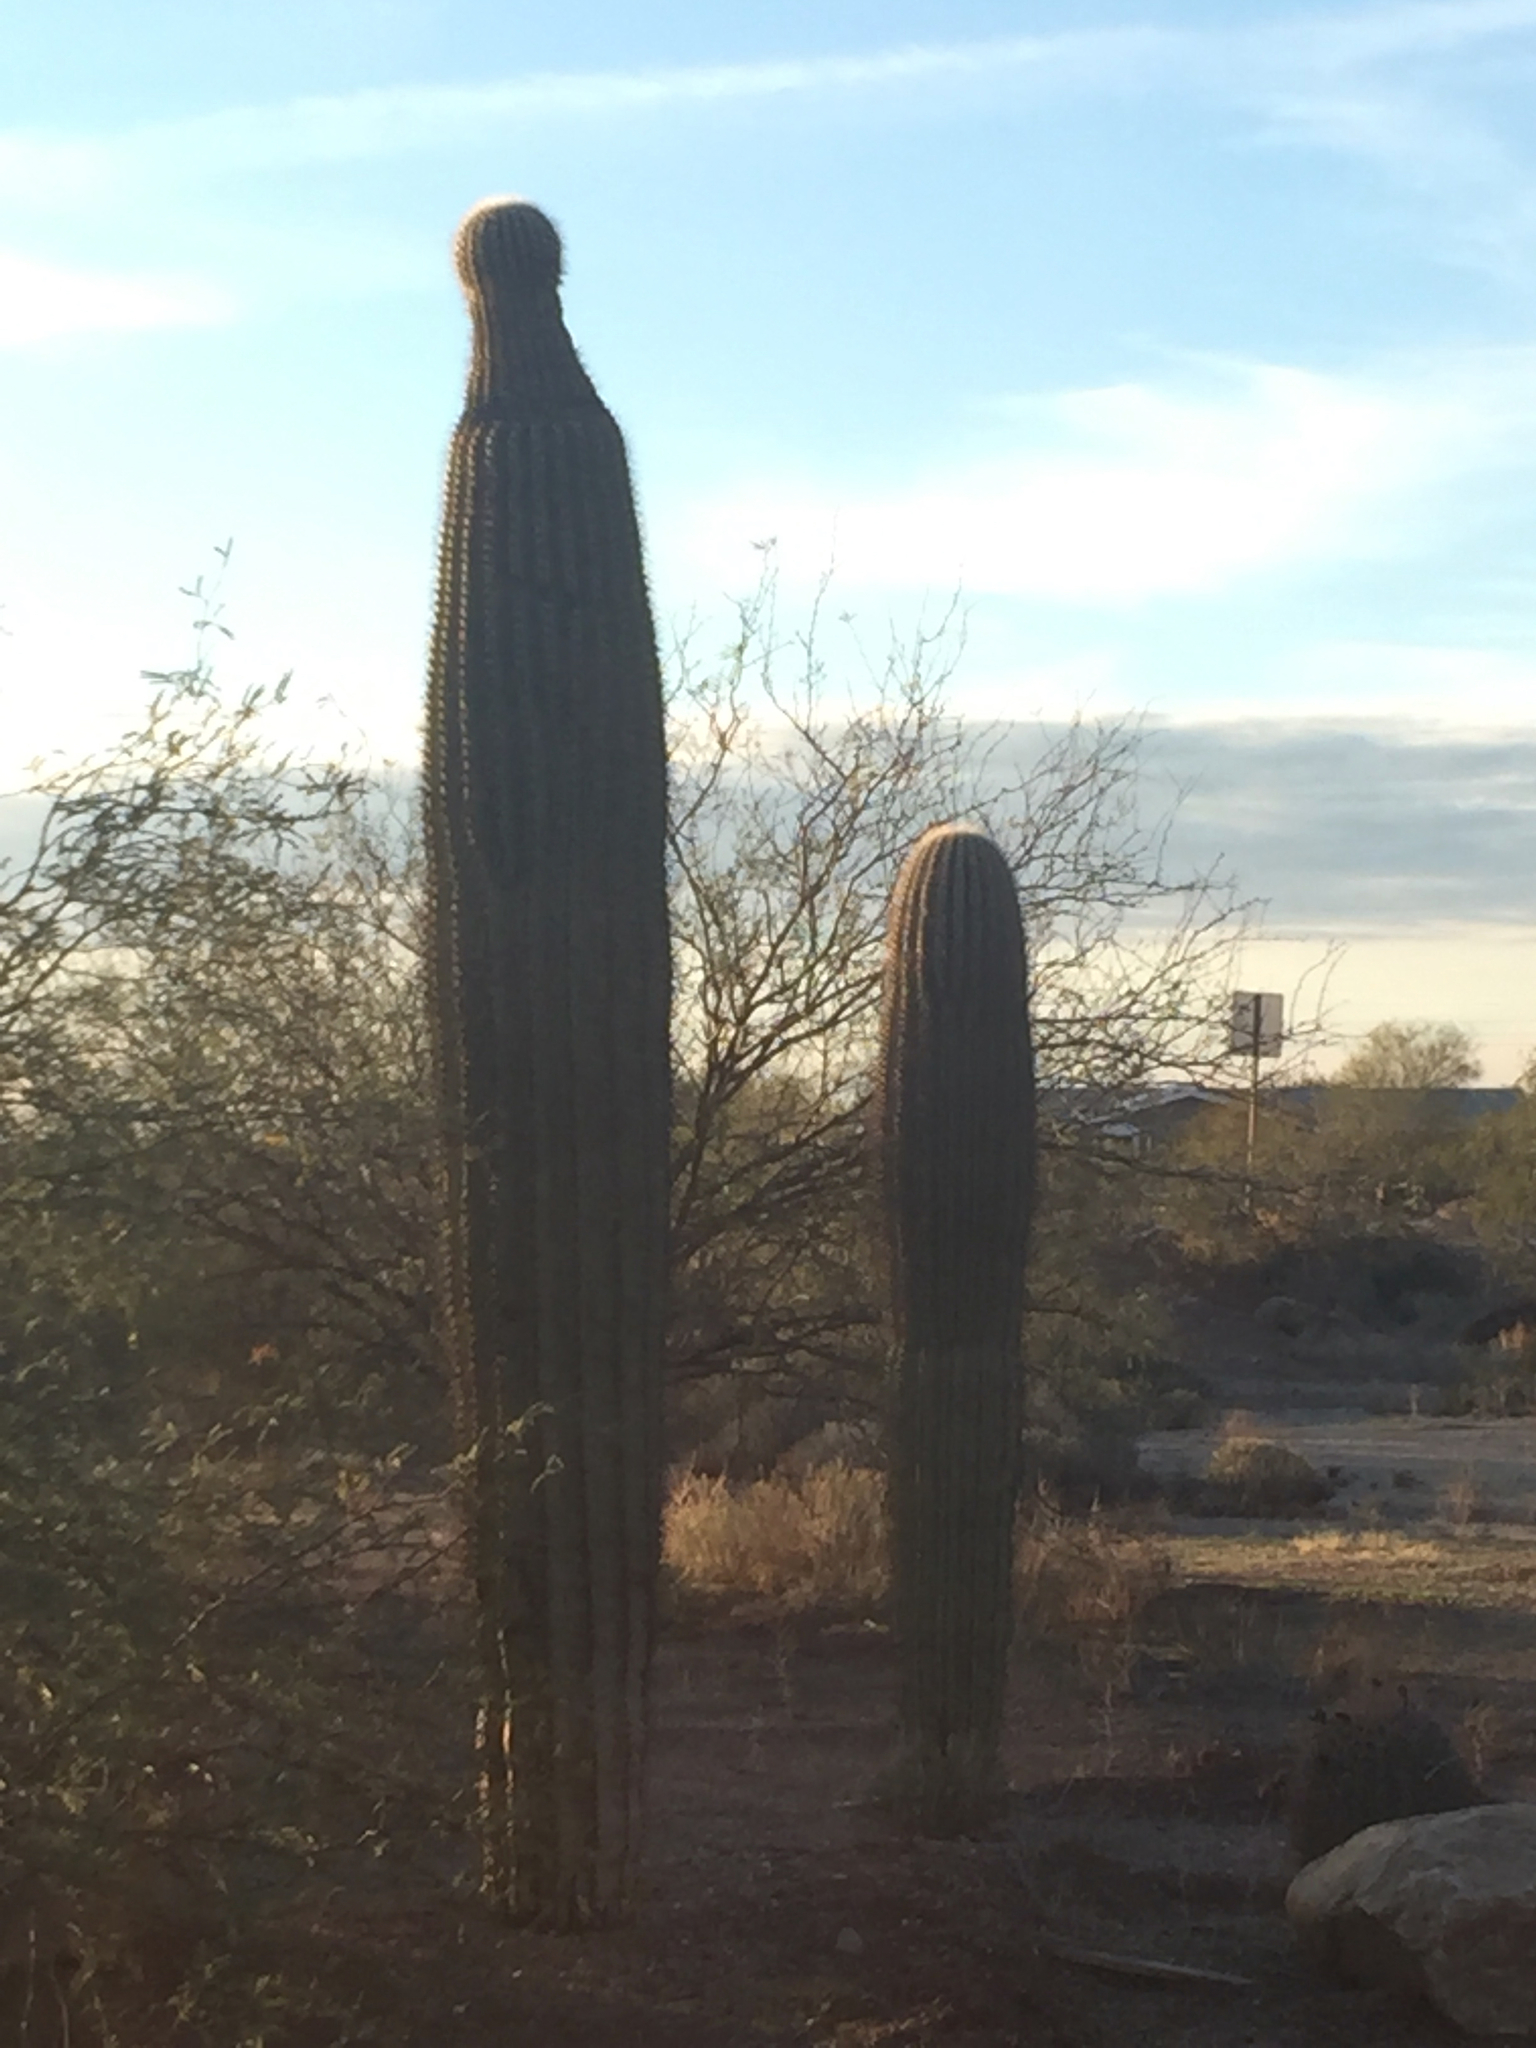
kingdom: Plantae
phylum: Tracheophyta
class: Magnoliopsida
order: Caryophyllales
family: Cactaceae
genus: Carnegiea
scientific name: Carnegiea gigantea
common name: Saguaro
